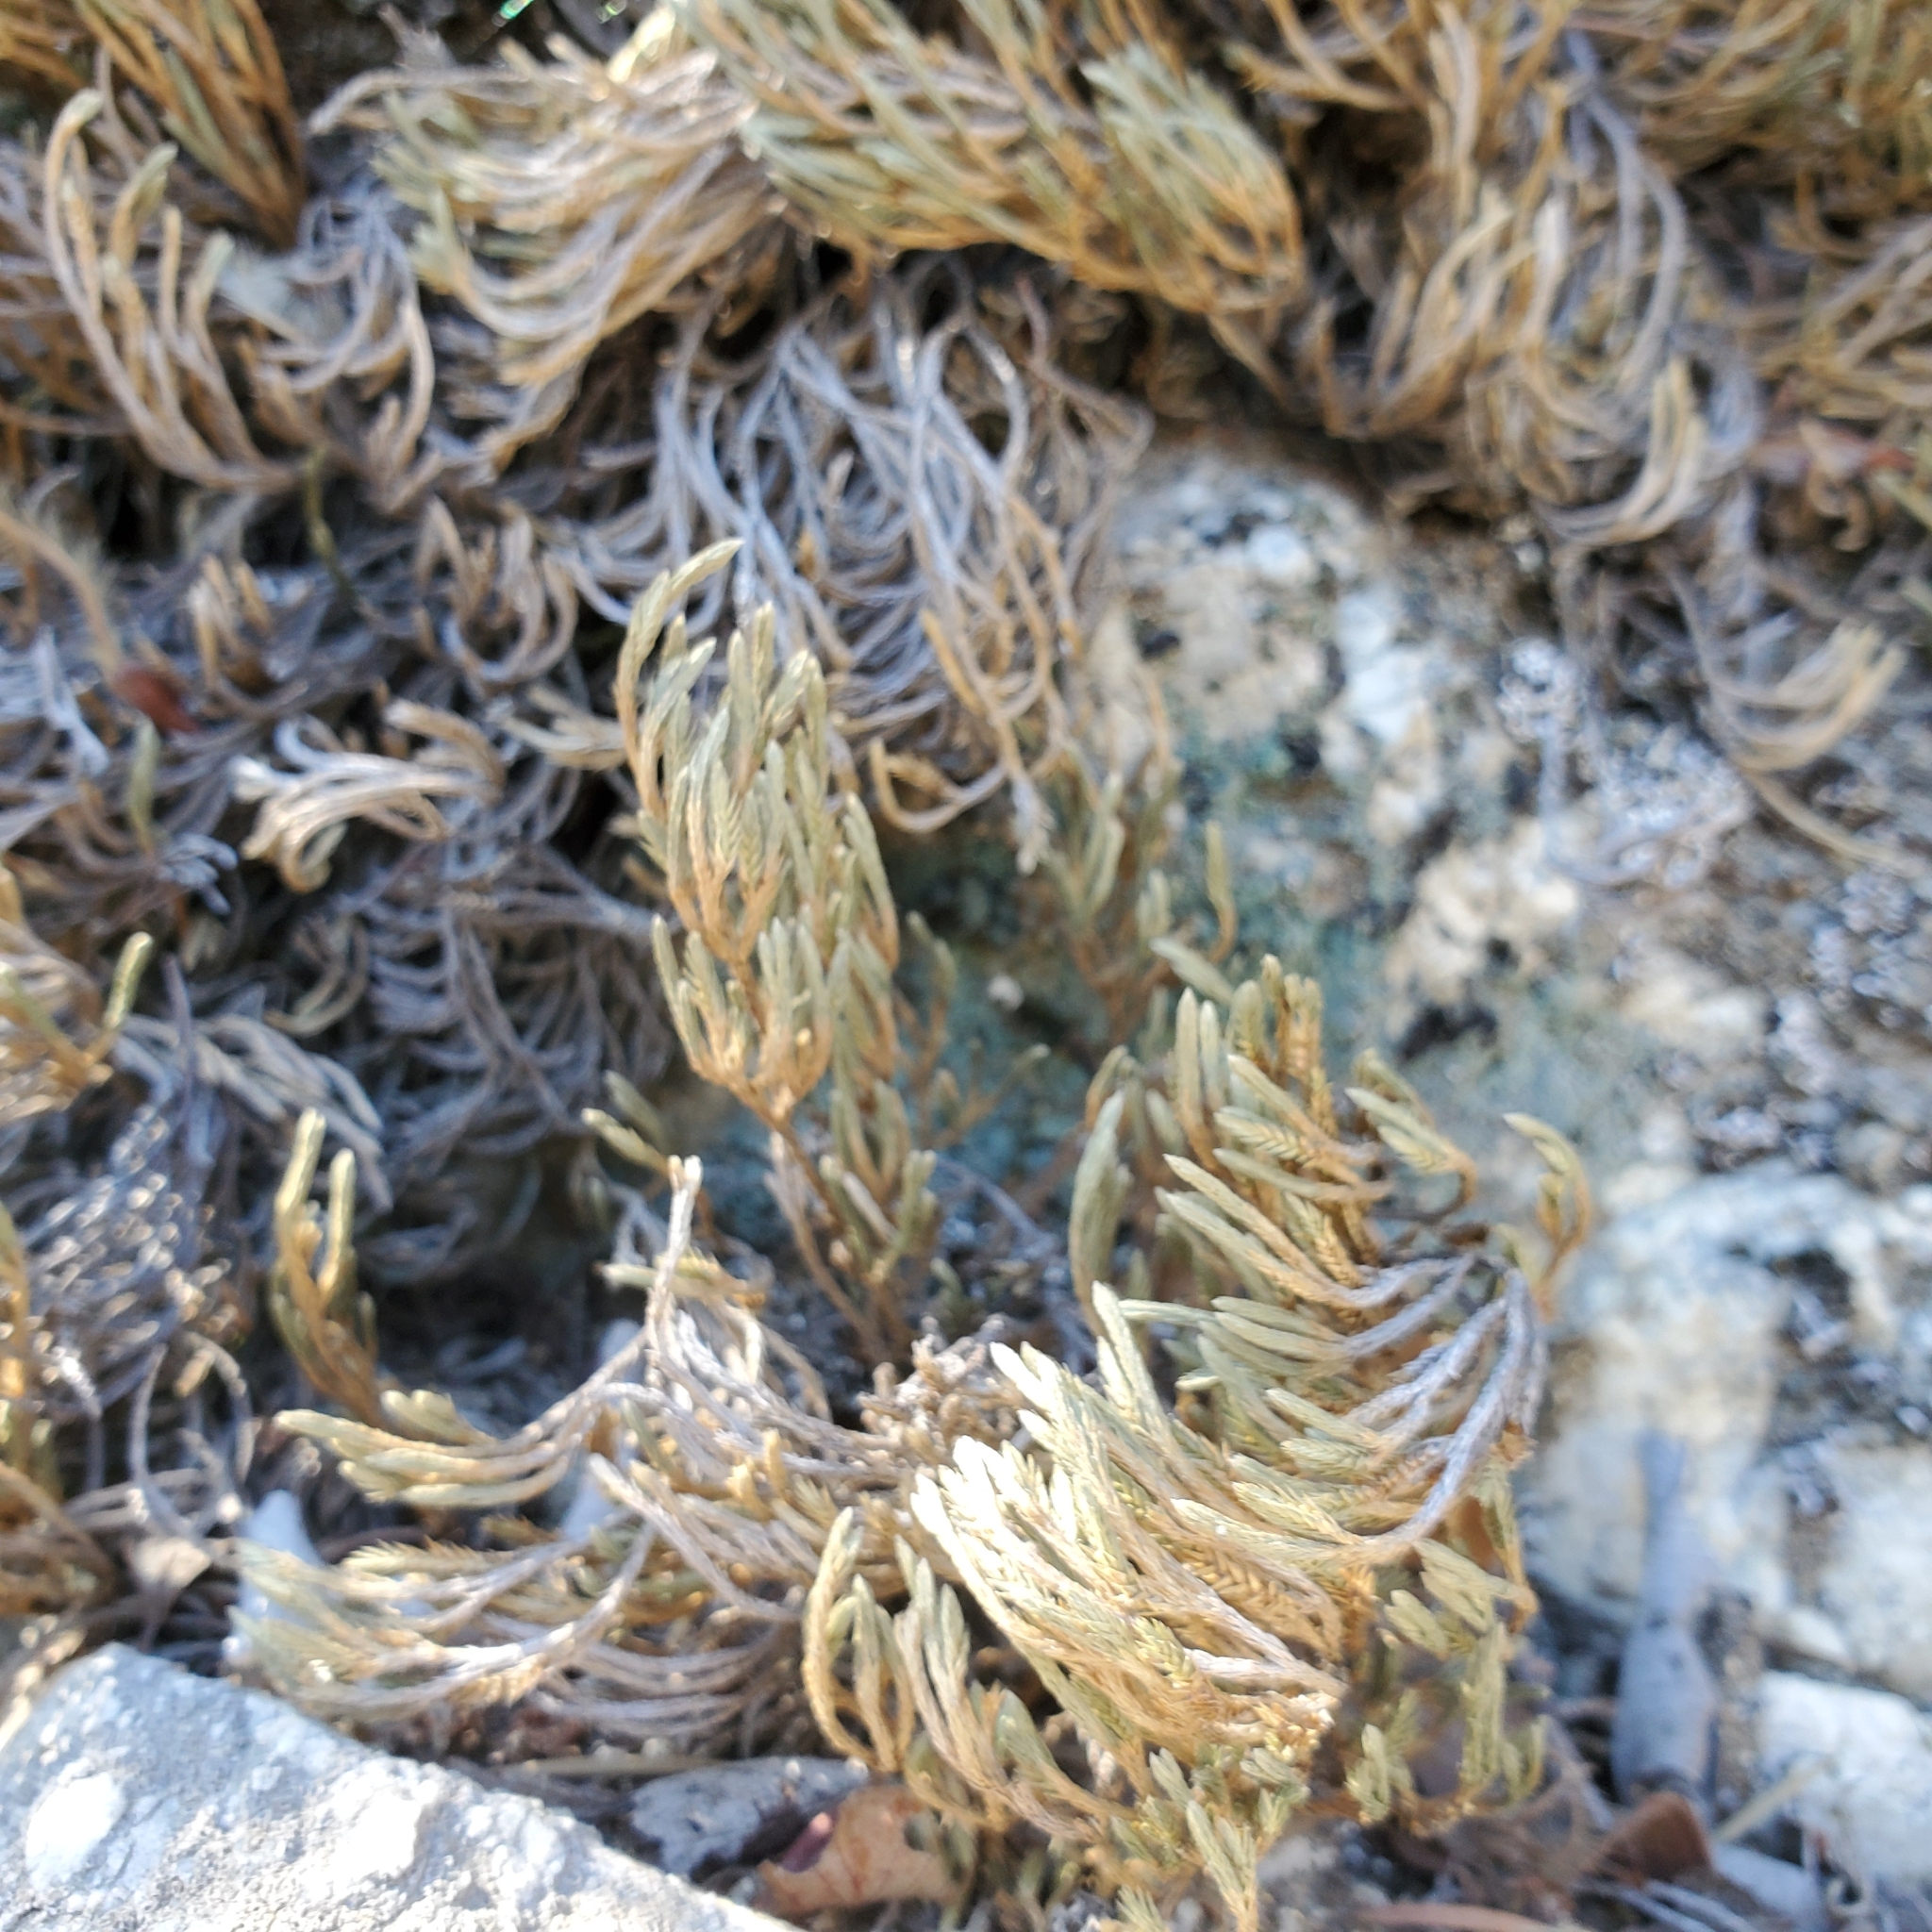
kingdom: Plantae
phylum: Tracheophyta
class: Lycopodiopsida
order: Selaginellales
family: Selaginellaceae
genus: Selaginella
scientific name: Selaginella bigelovii
